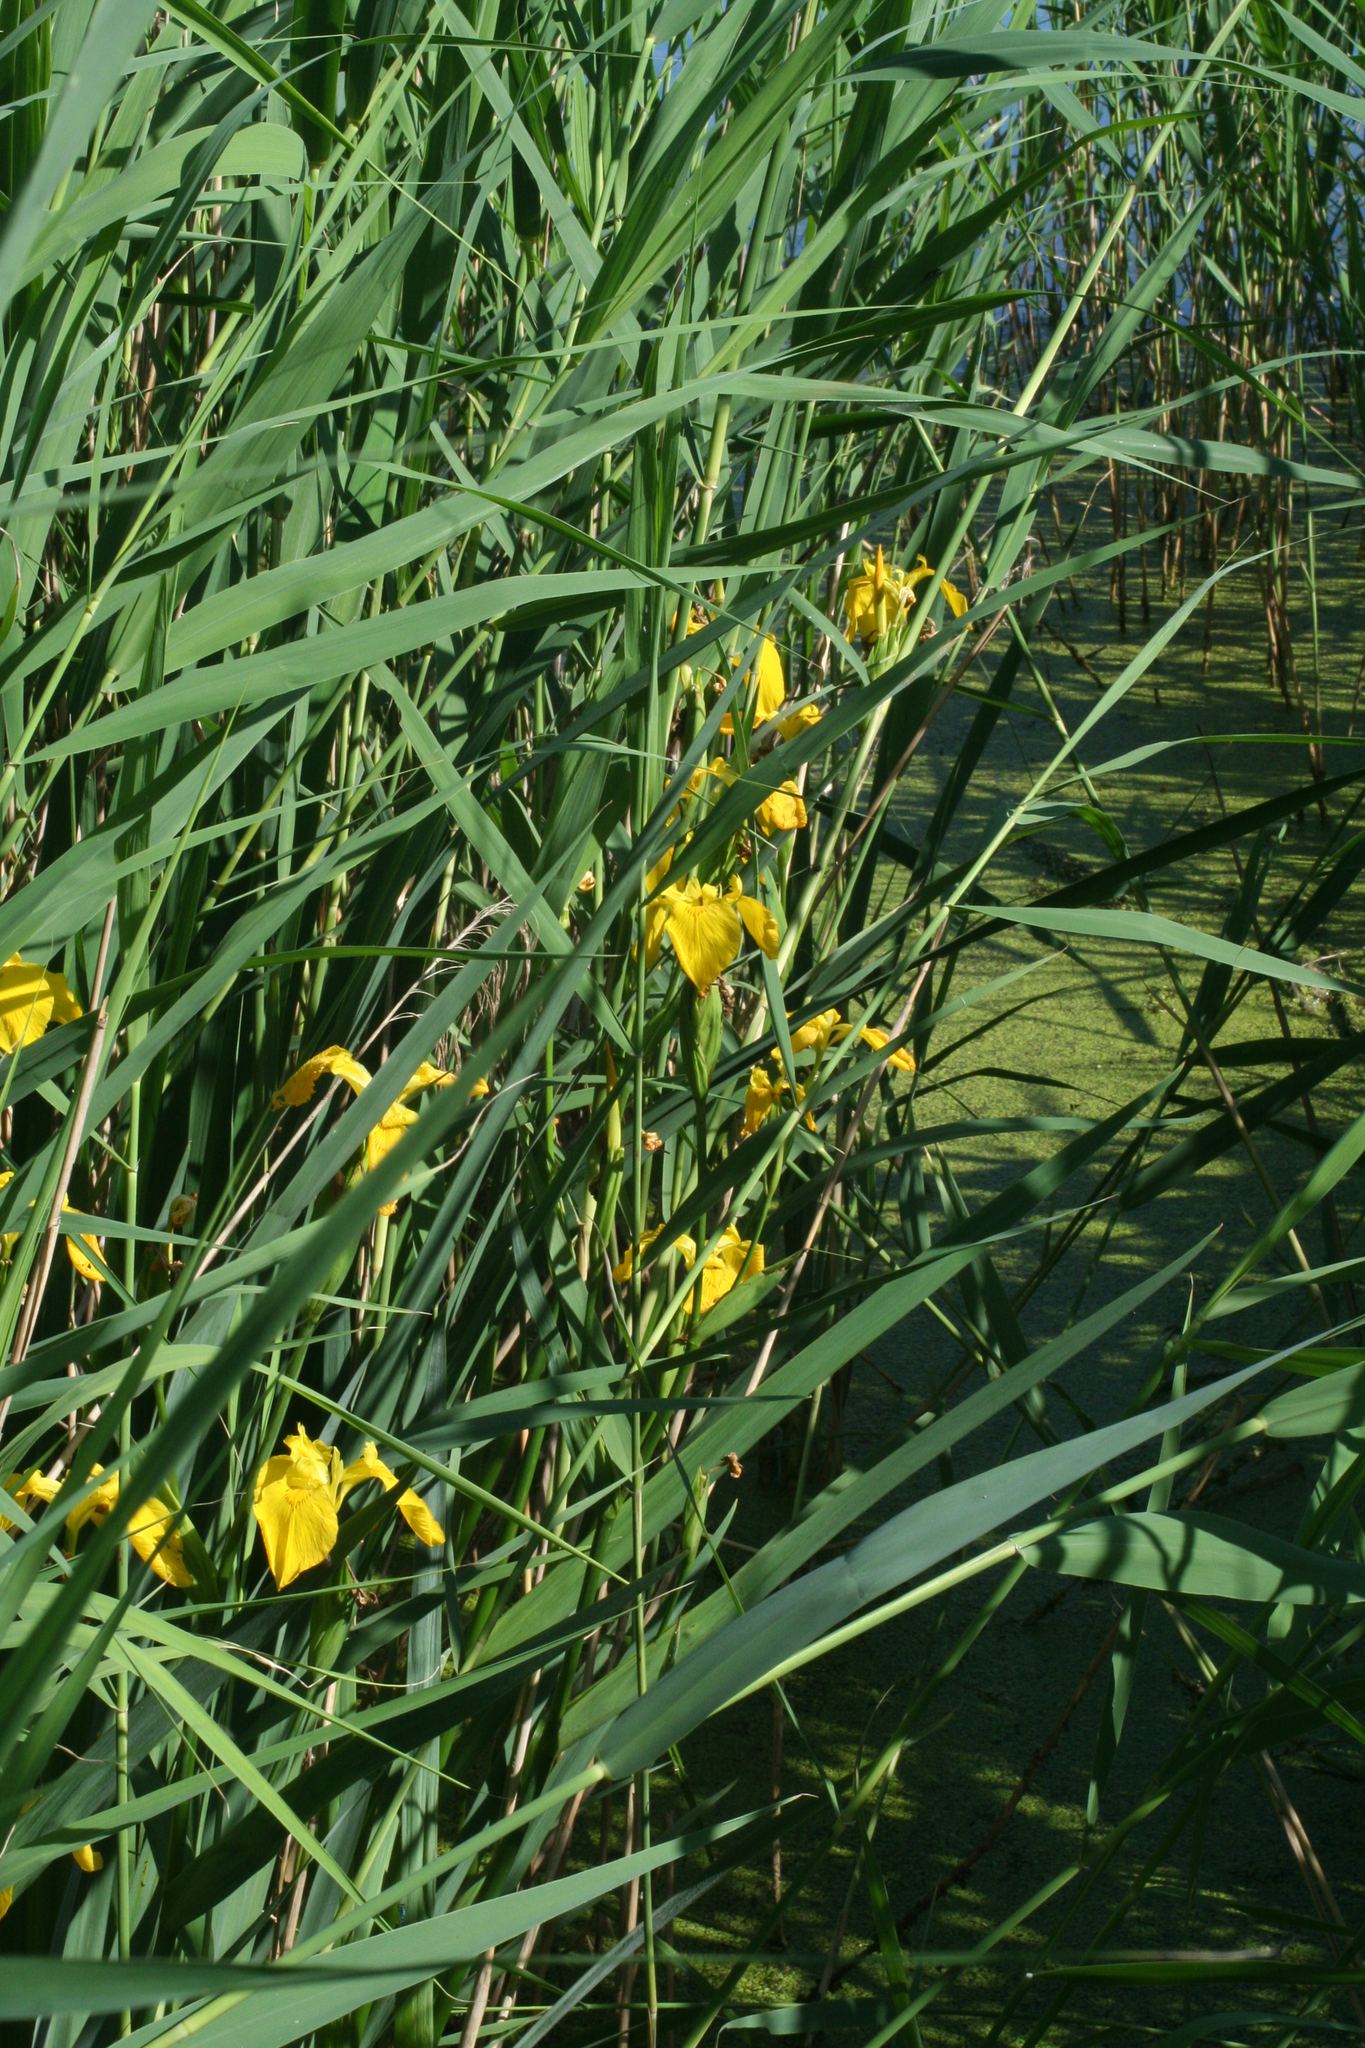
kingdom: Plantae
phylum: Tracheophyta
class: Liliopsida
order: Asparagales
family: Iridaceae
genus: Iris
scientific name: Iris pseudacorus
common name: Yellow flag
